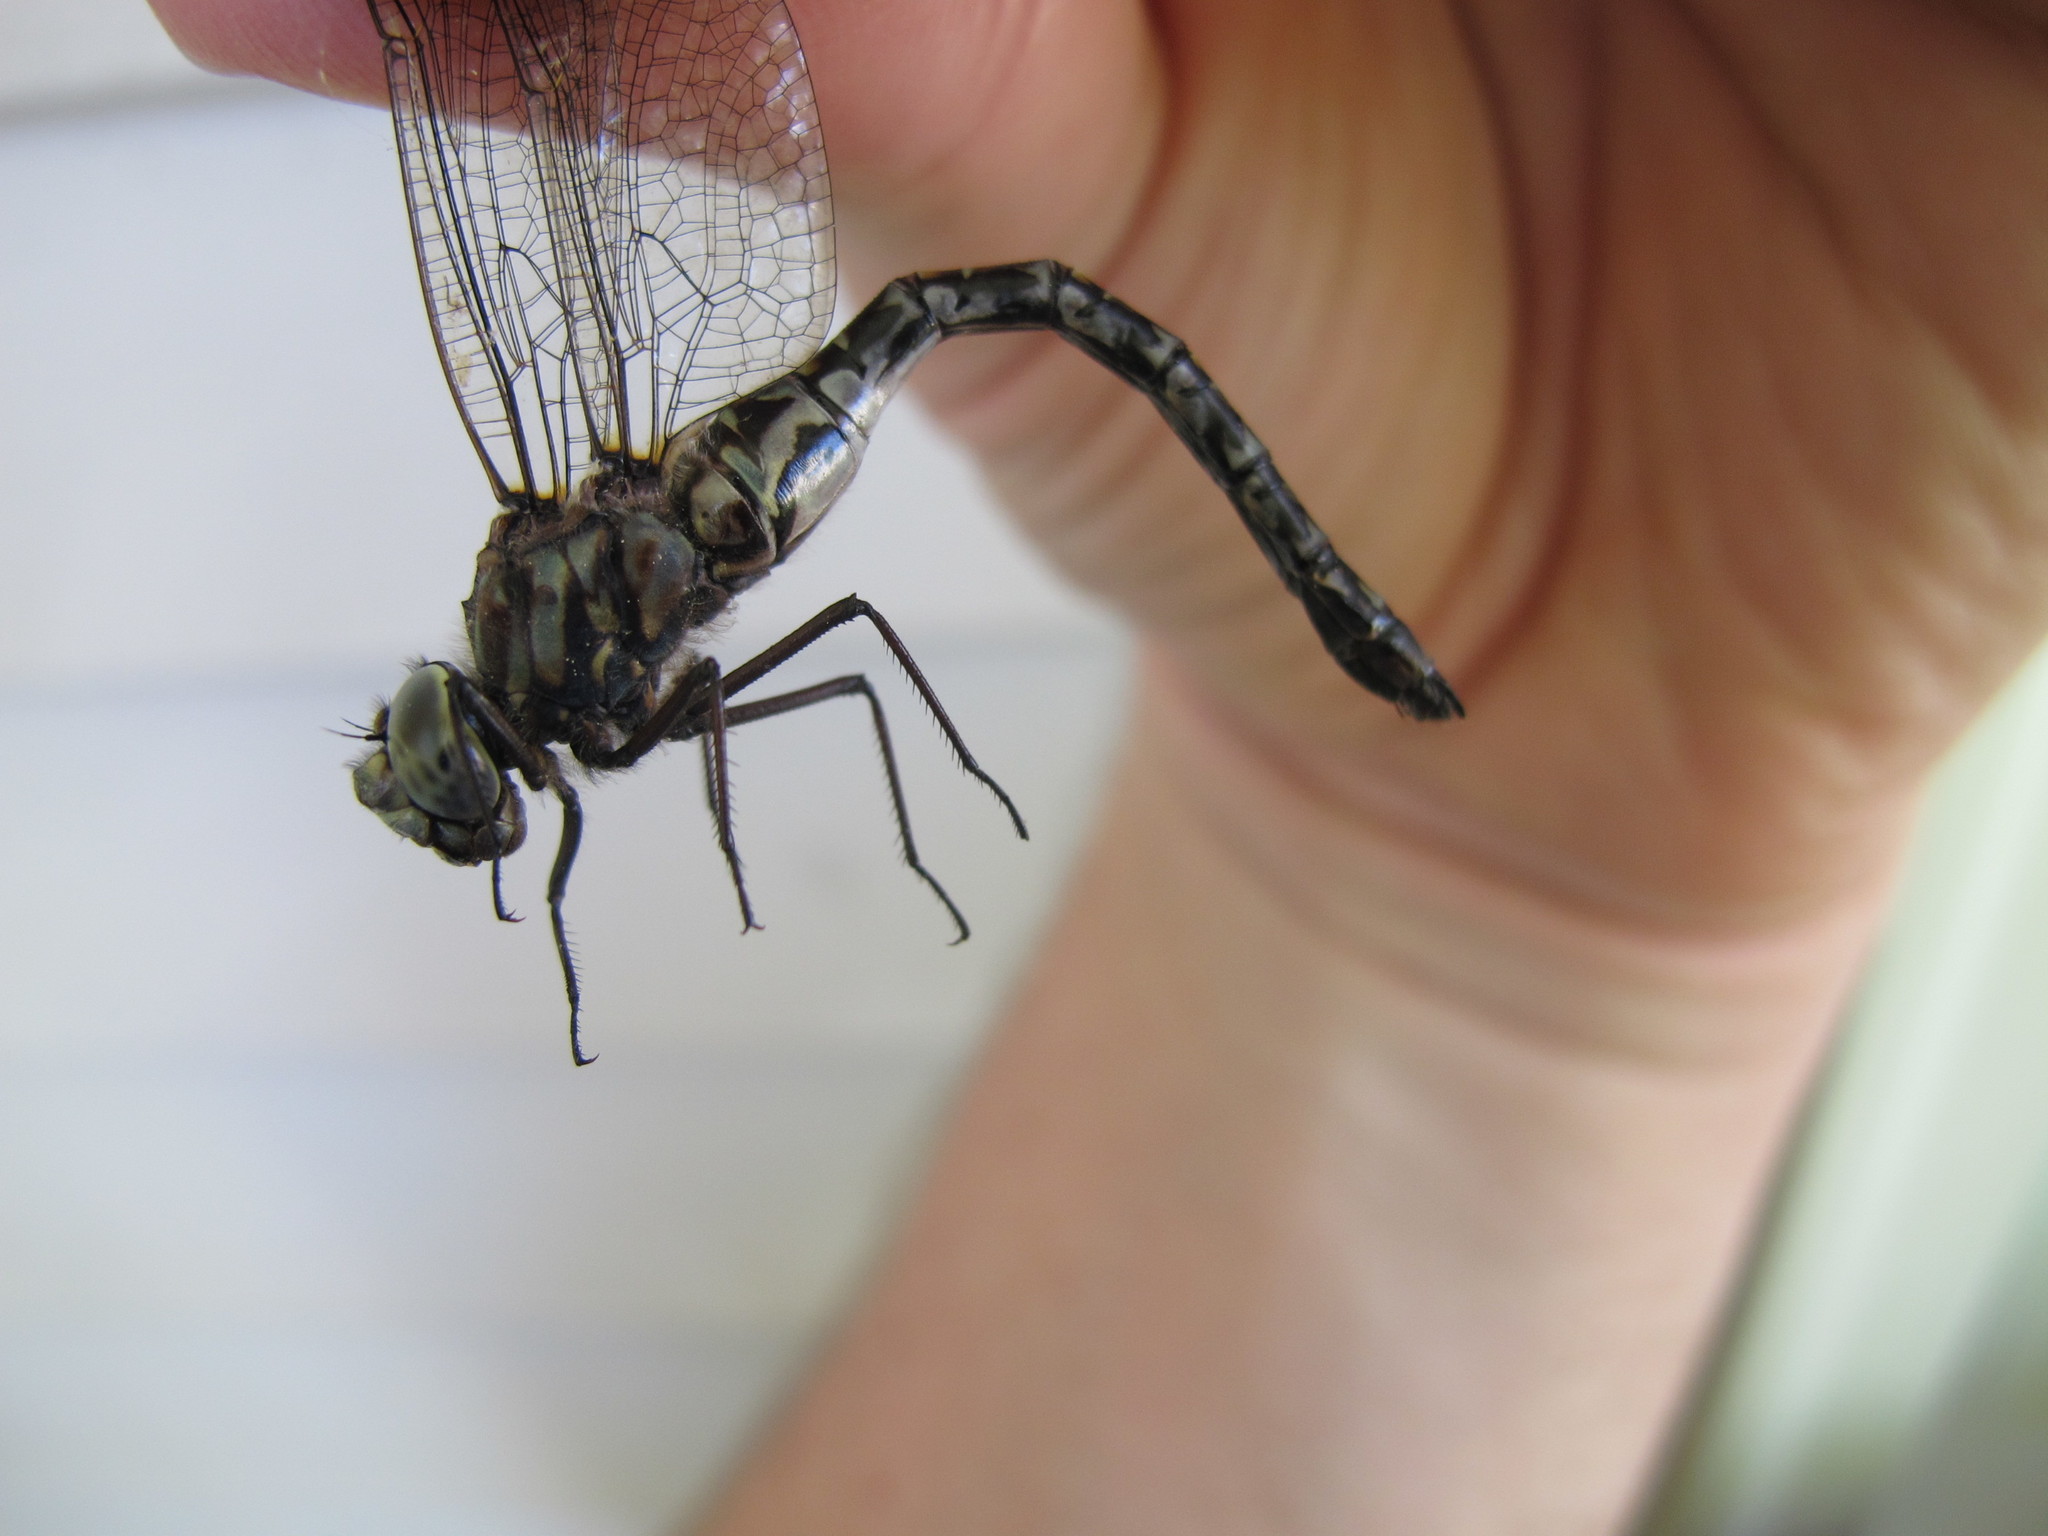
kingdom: Animalia
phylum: Arthropoda
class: Insecta
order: Odonata
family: Aeshnidae
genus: Gomphaeschna
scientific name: Gomphaeschna furcillata
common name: Harlequin darner
